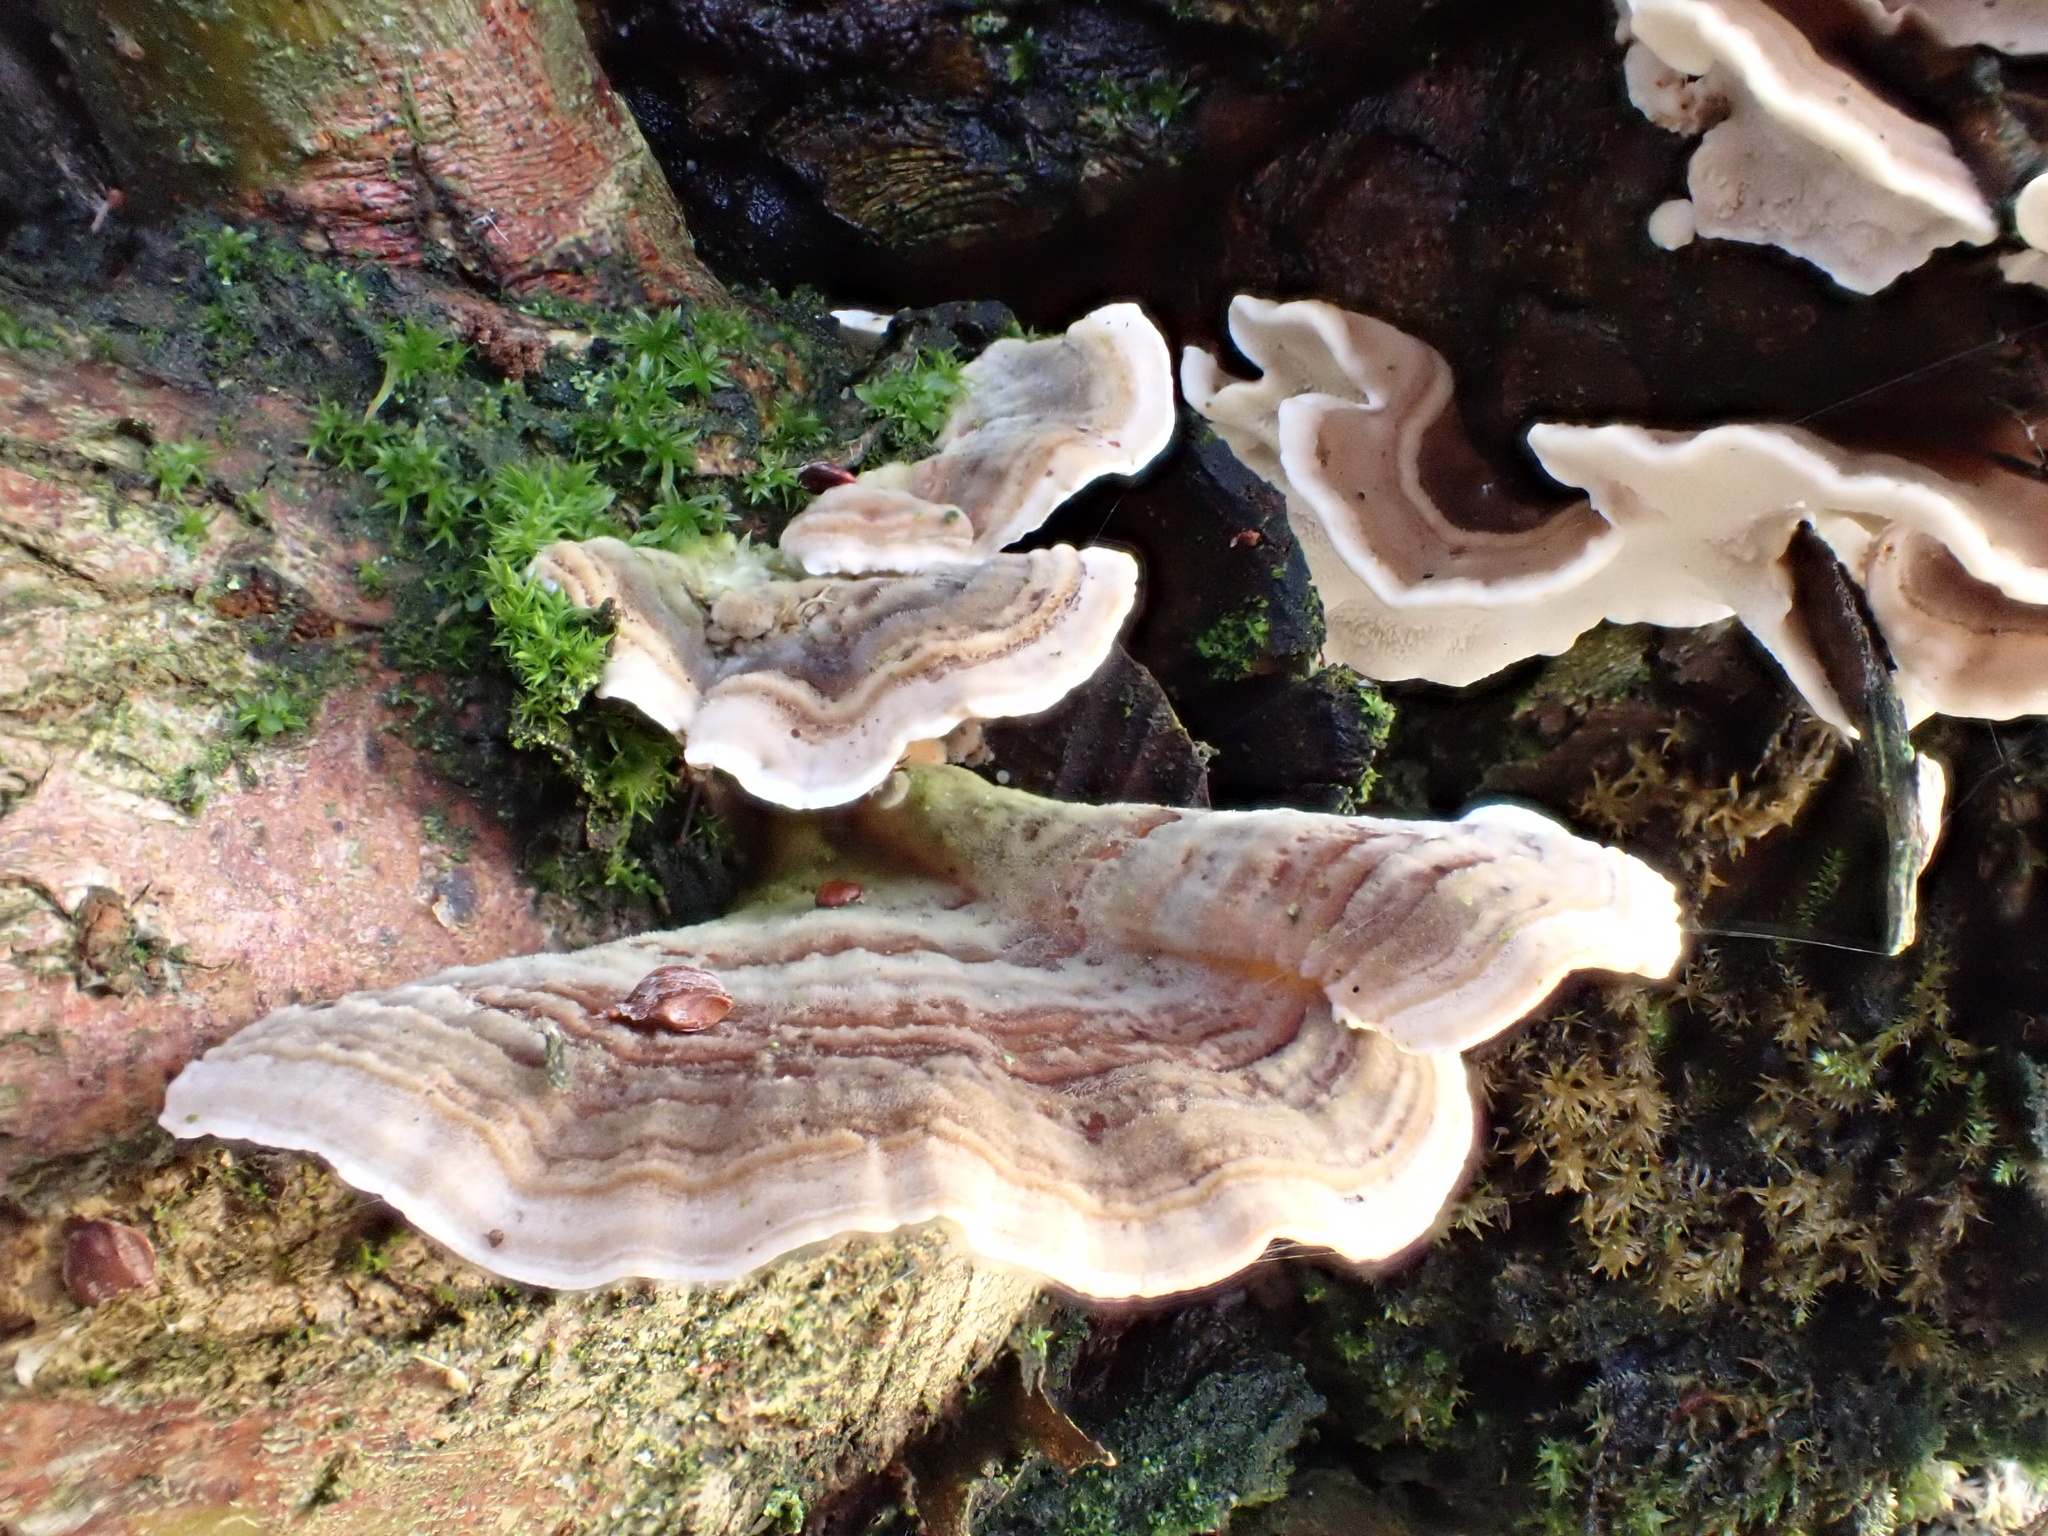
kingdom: Fungi
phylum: Basidiomycota
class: Agaricomycetes
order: Polyporales
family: Polyporaceae
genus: Trametes
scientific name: Trametes versicolor
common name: Turkeytail
